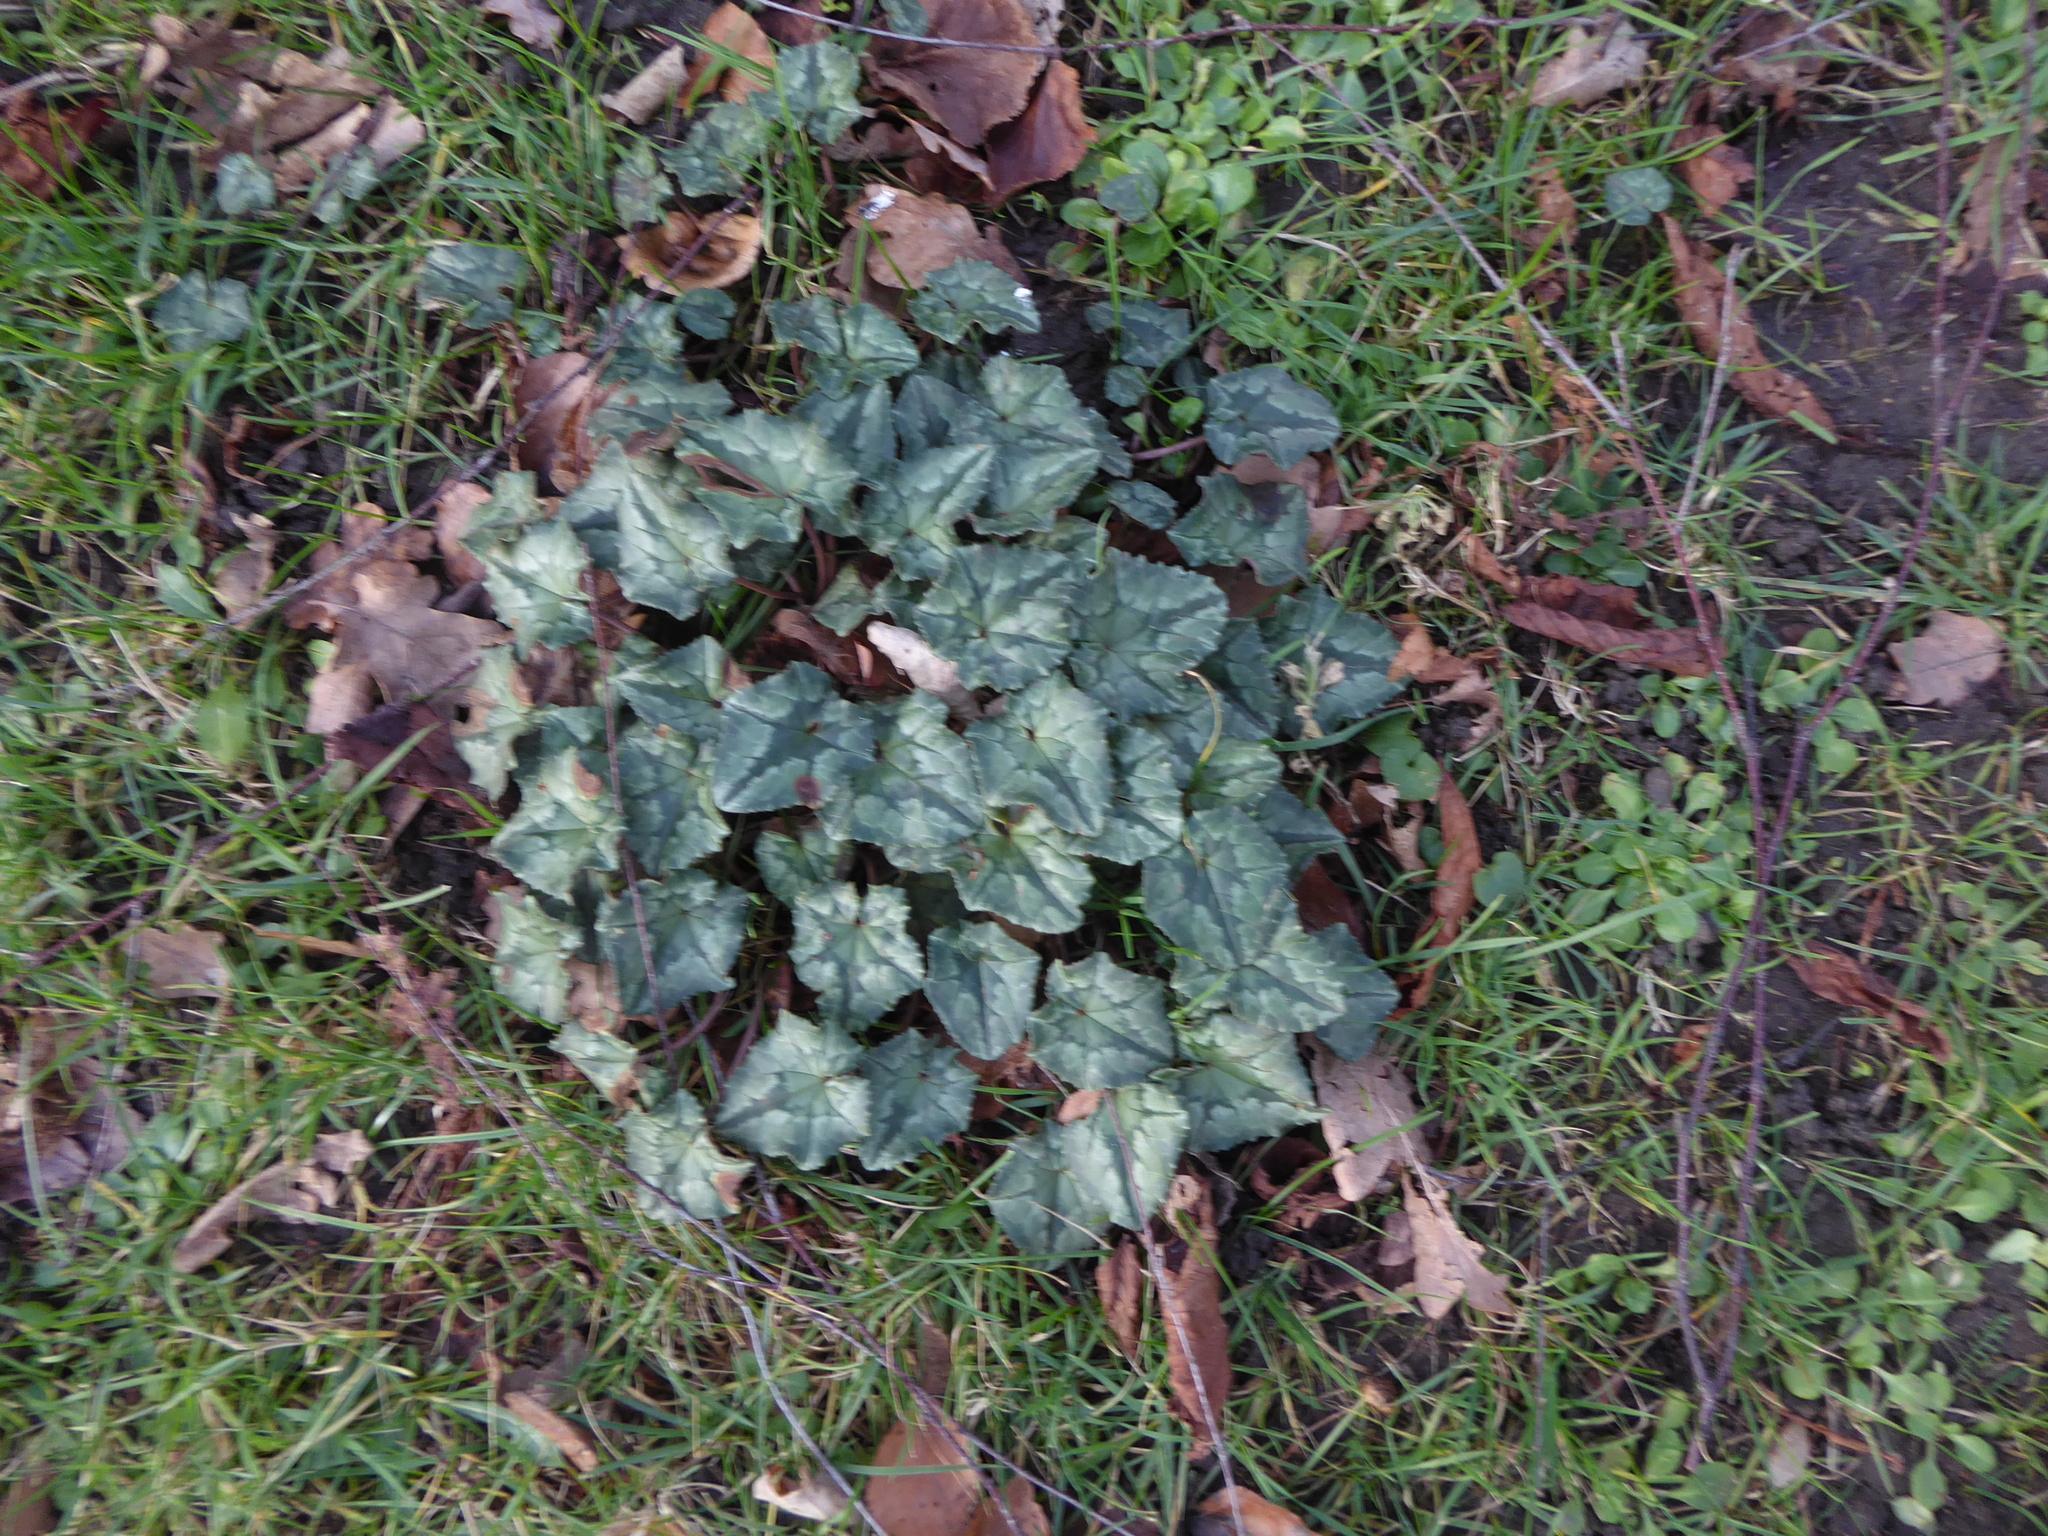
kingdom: Plantae
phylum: Tracheophyta
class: Magnoliopsida
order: Ericales
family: Primulaceae
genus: Cyclamen
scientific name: Cyclamen hederifolium
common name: Sowbread
